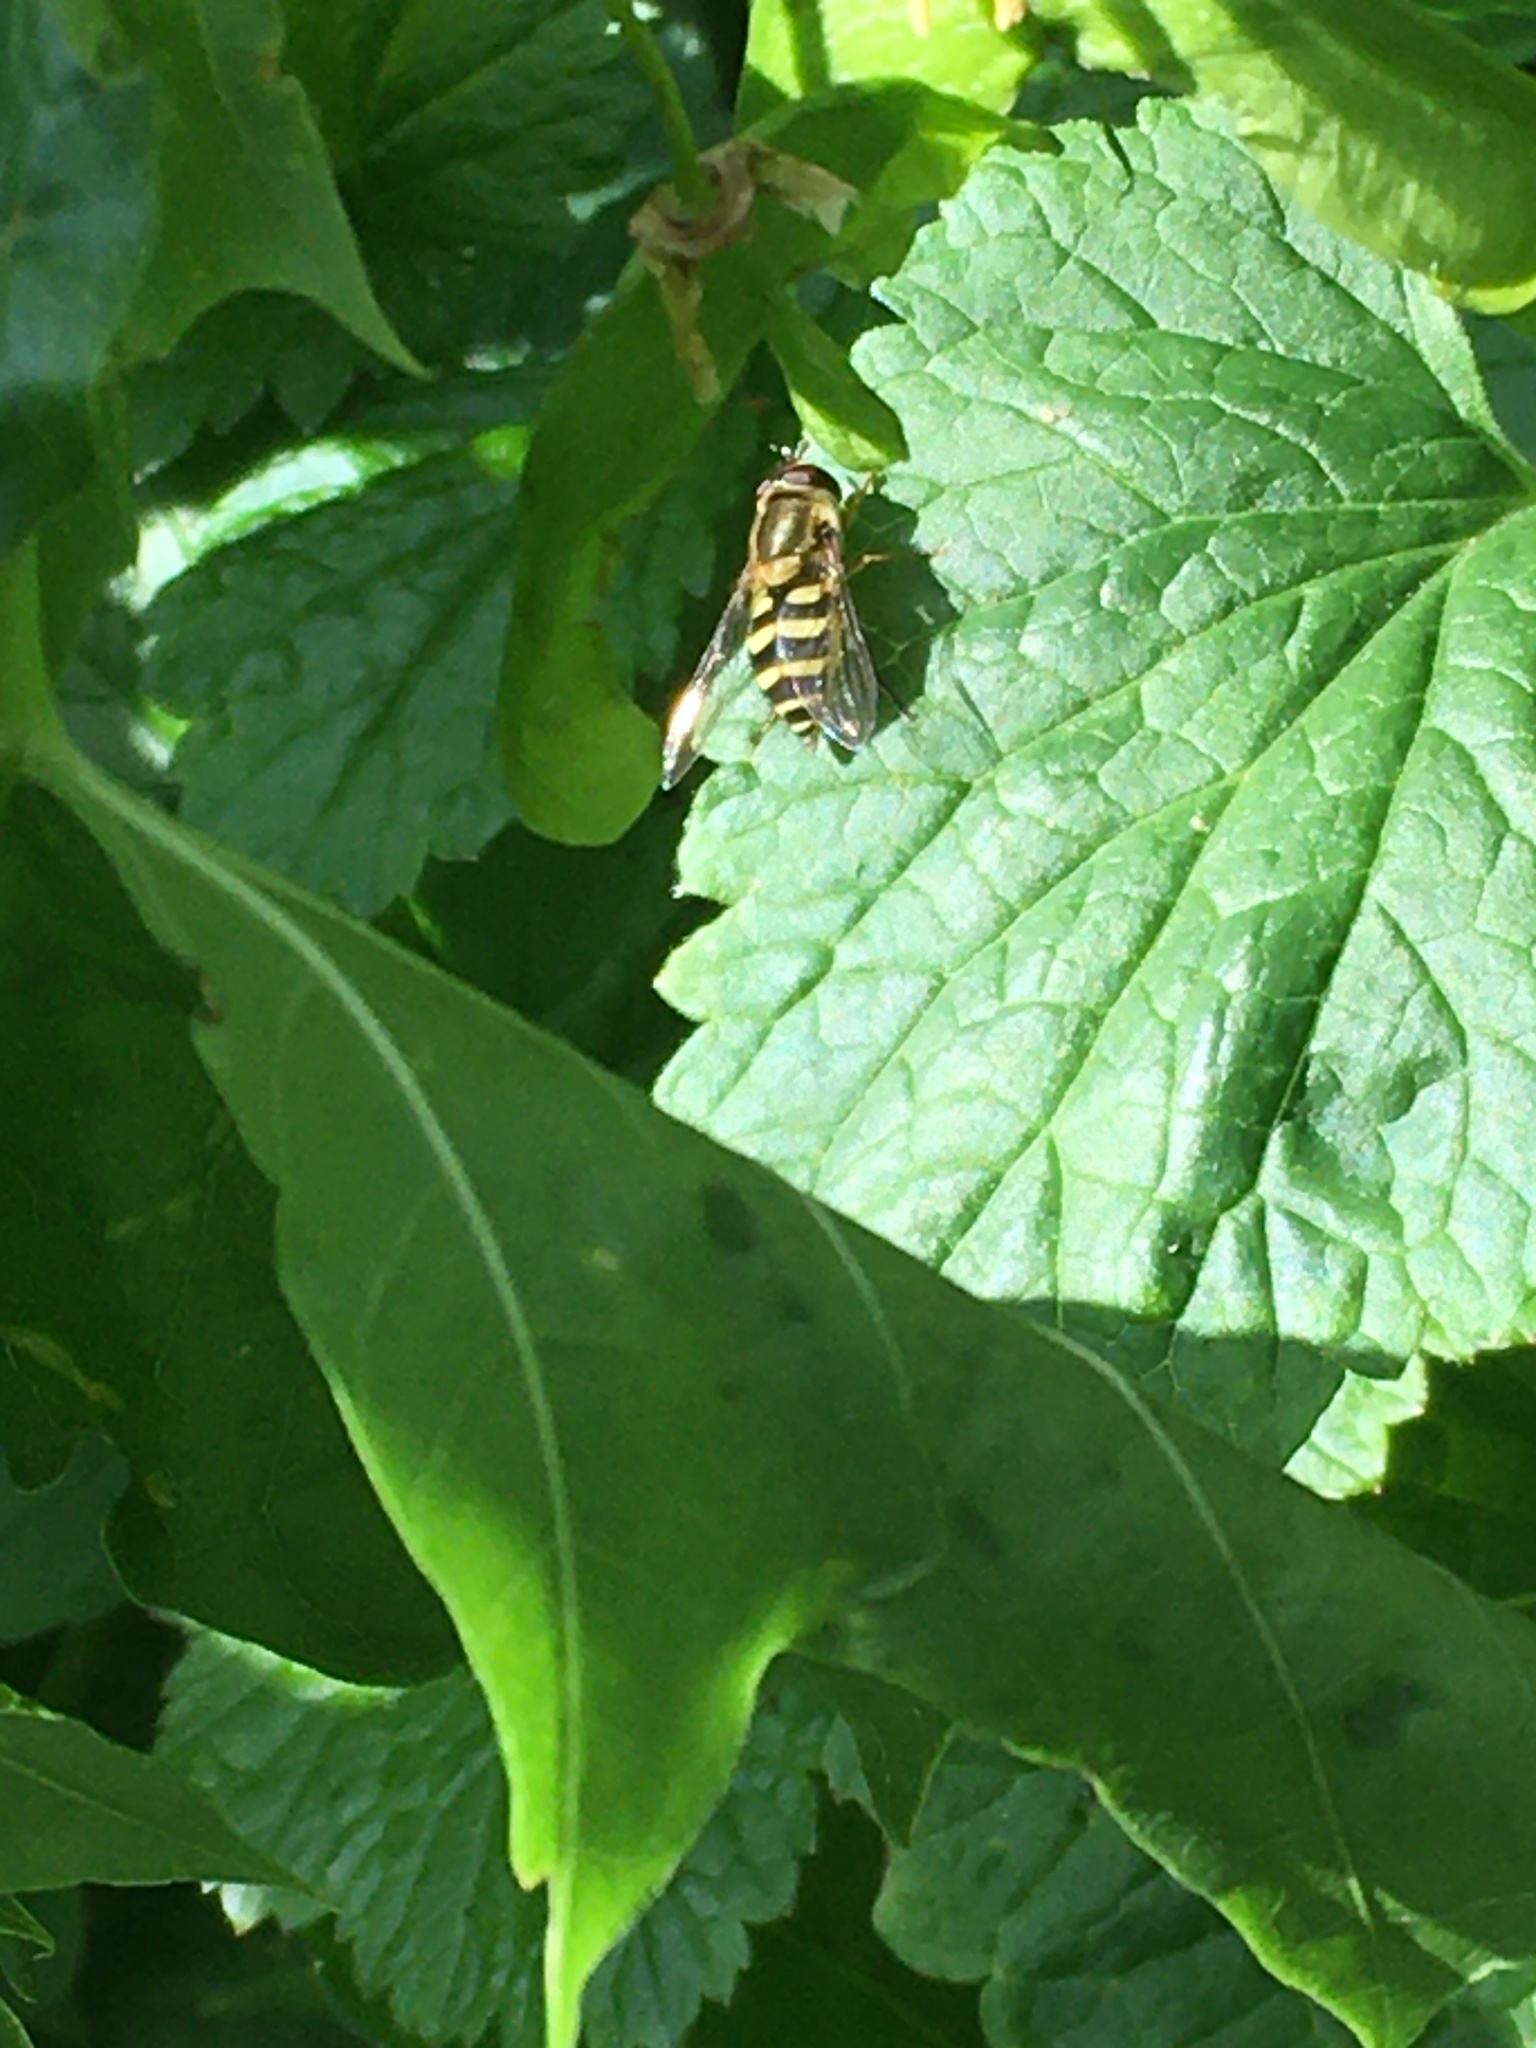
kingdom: Animalia
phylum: Arthropoda
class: Insecta
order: Diptera
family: Syrphidae
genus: Syrphus
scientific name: Syrphus
